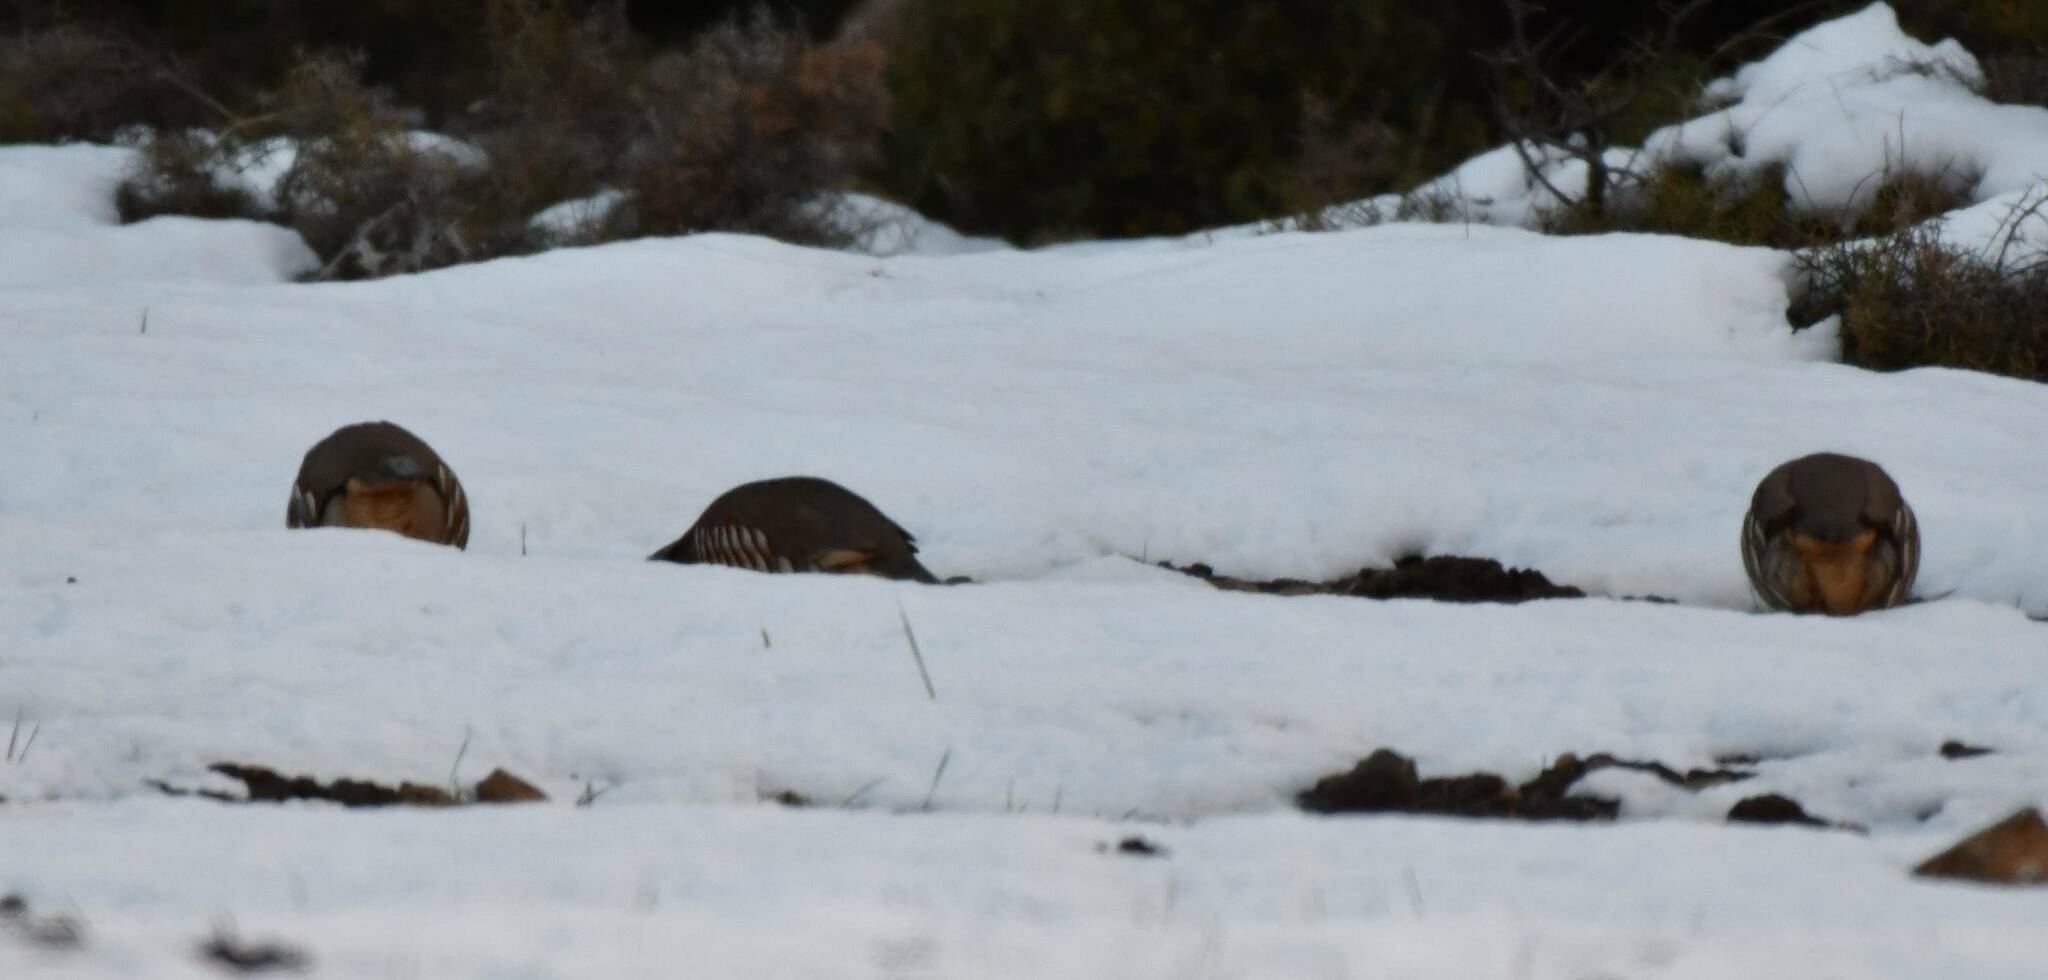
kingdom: Animalia
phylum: Chordata
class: Aves
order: Galliformes
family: Phasianidae
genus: Alectoris
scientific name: Alectoris barbara
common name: Barbary partridge
